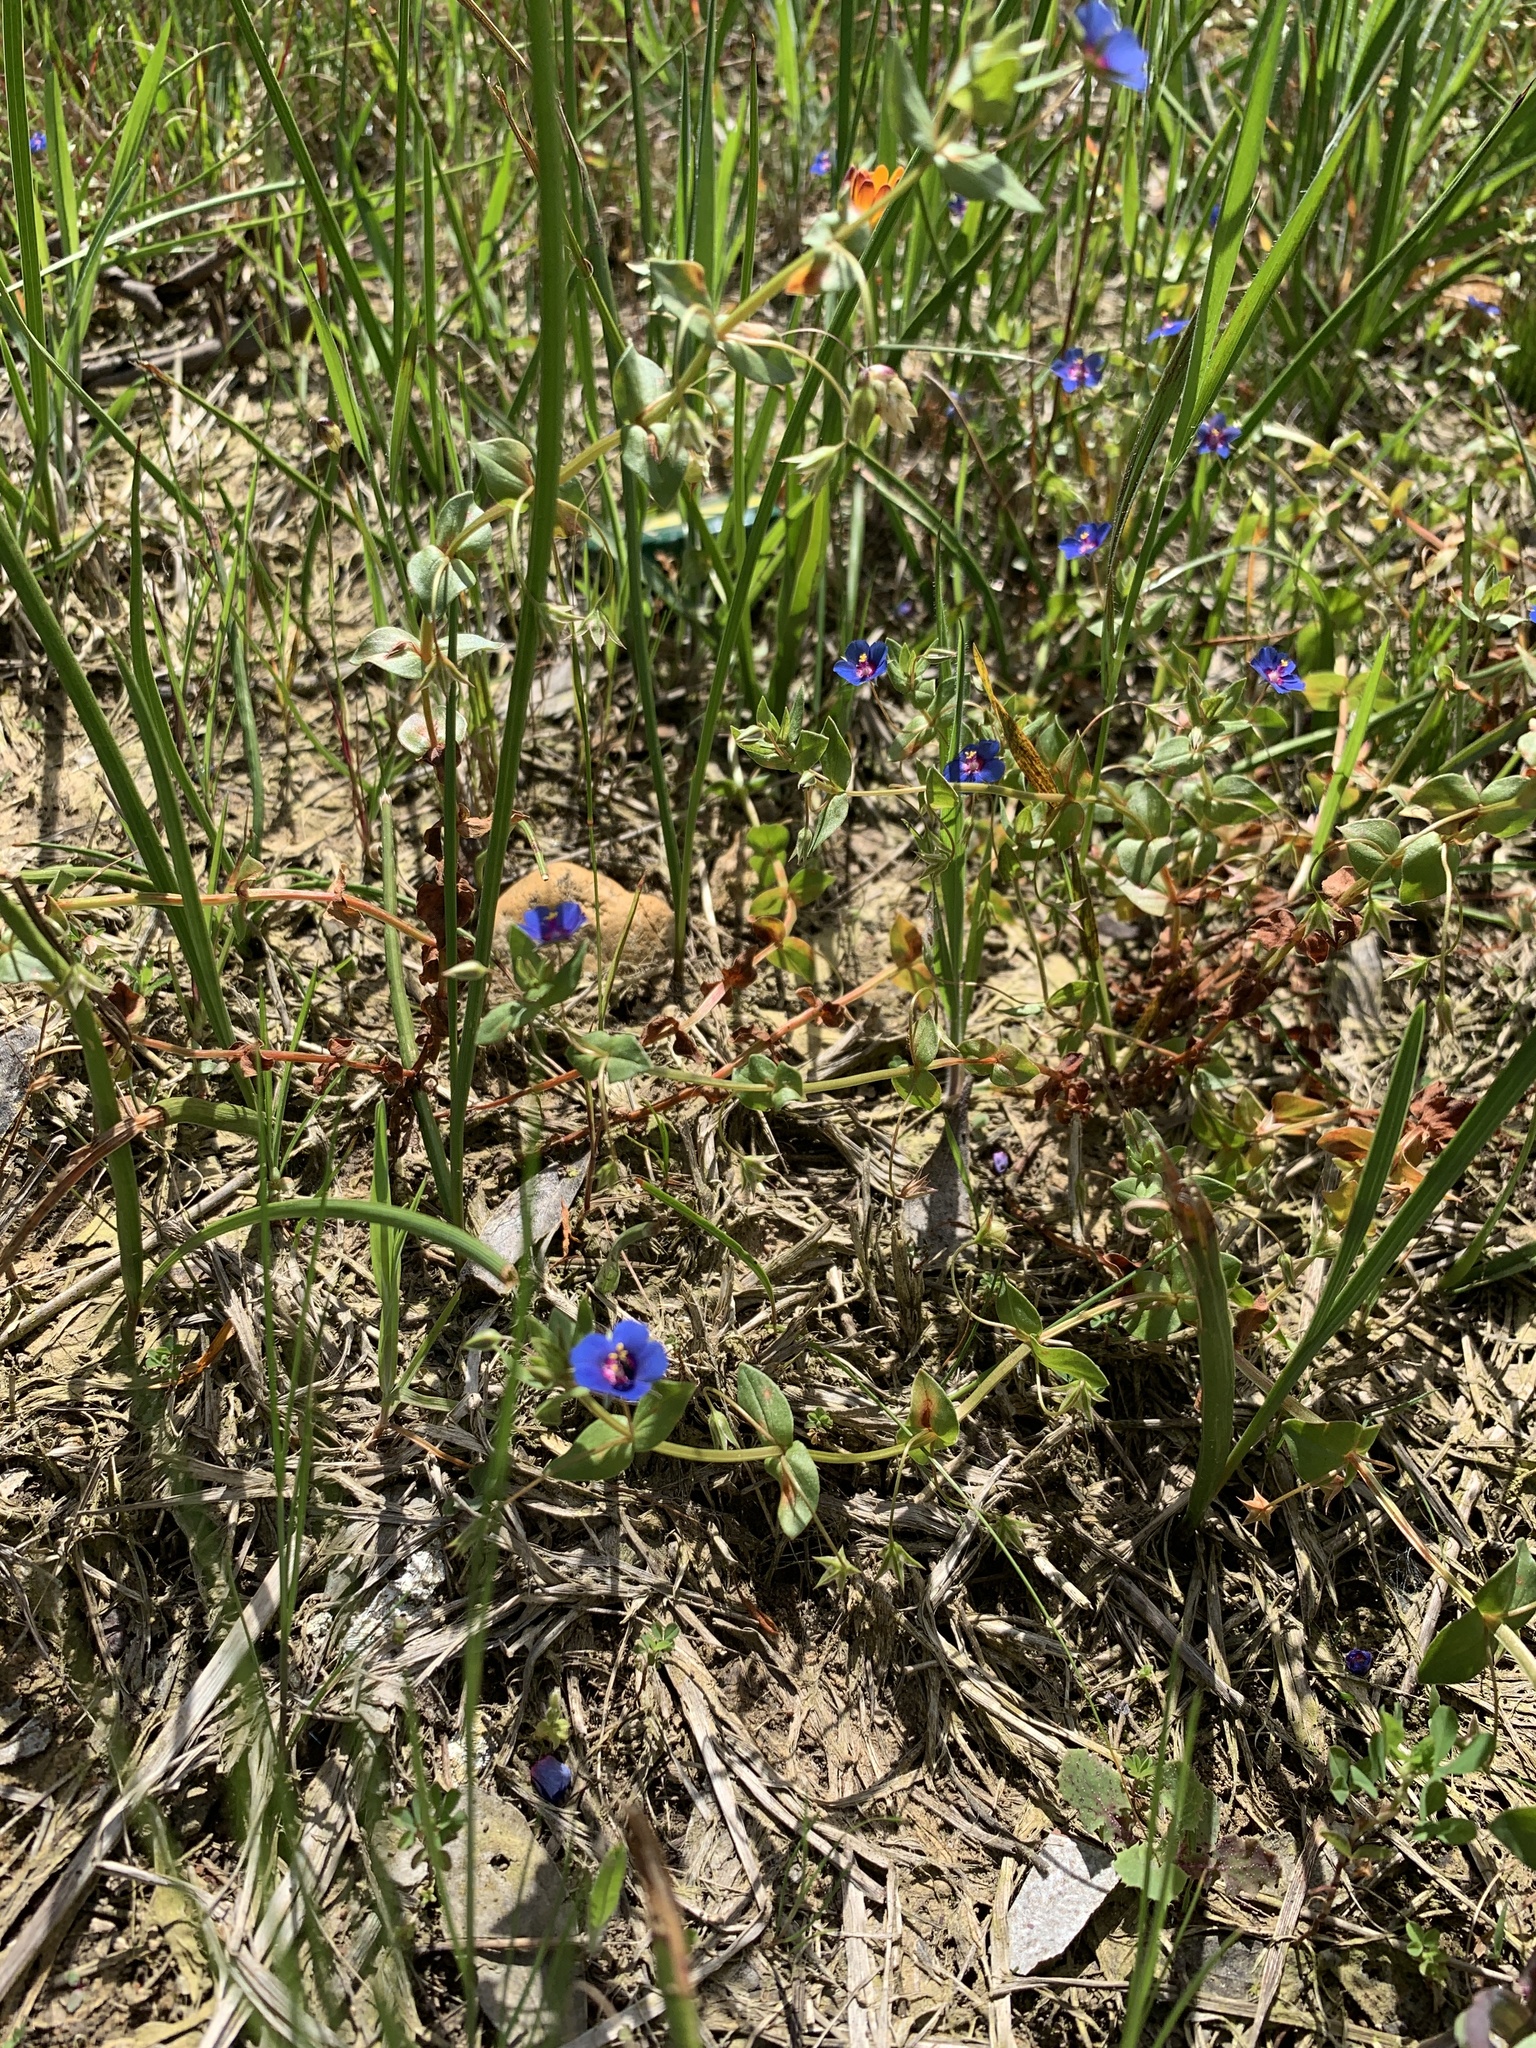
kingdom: Plantae
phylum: Tracheophyta
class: Magnoliopsida
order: Ericales
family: Primulaceae
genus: Lysimachia
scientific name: Lysimachia loeflingii
